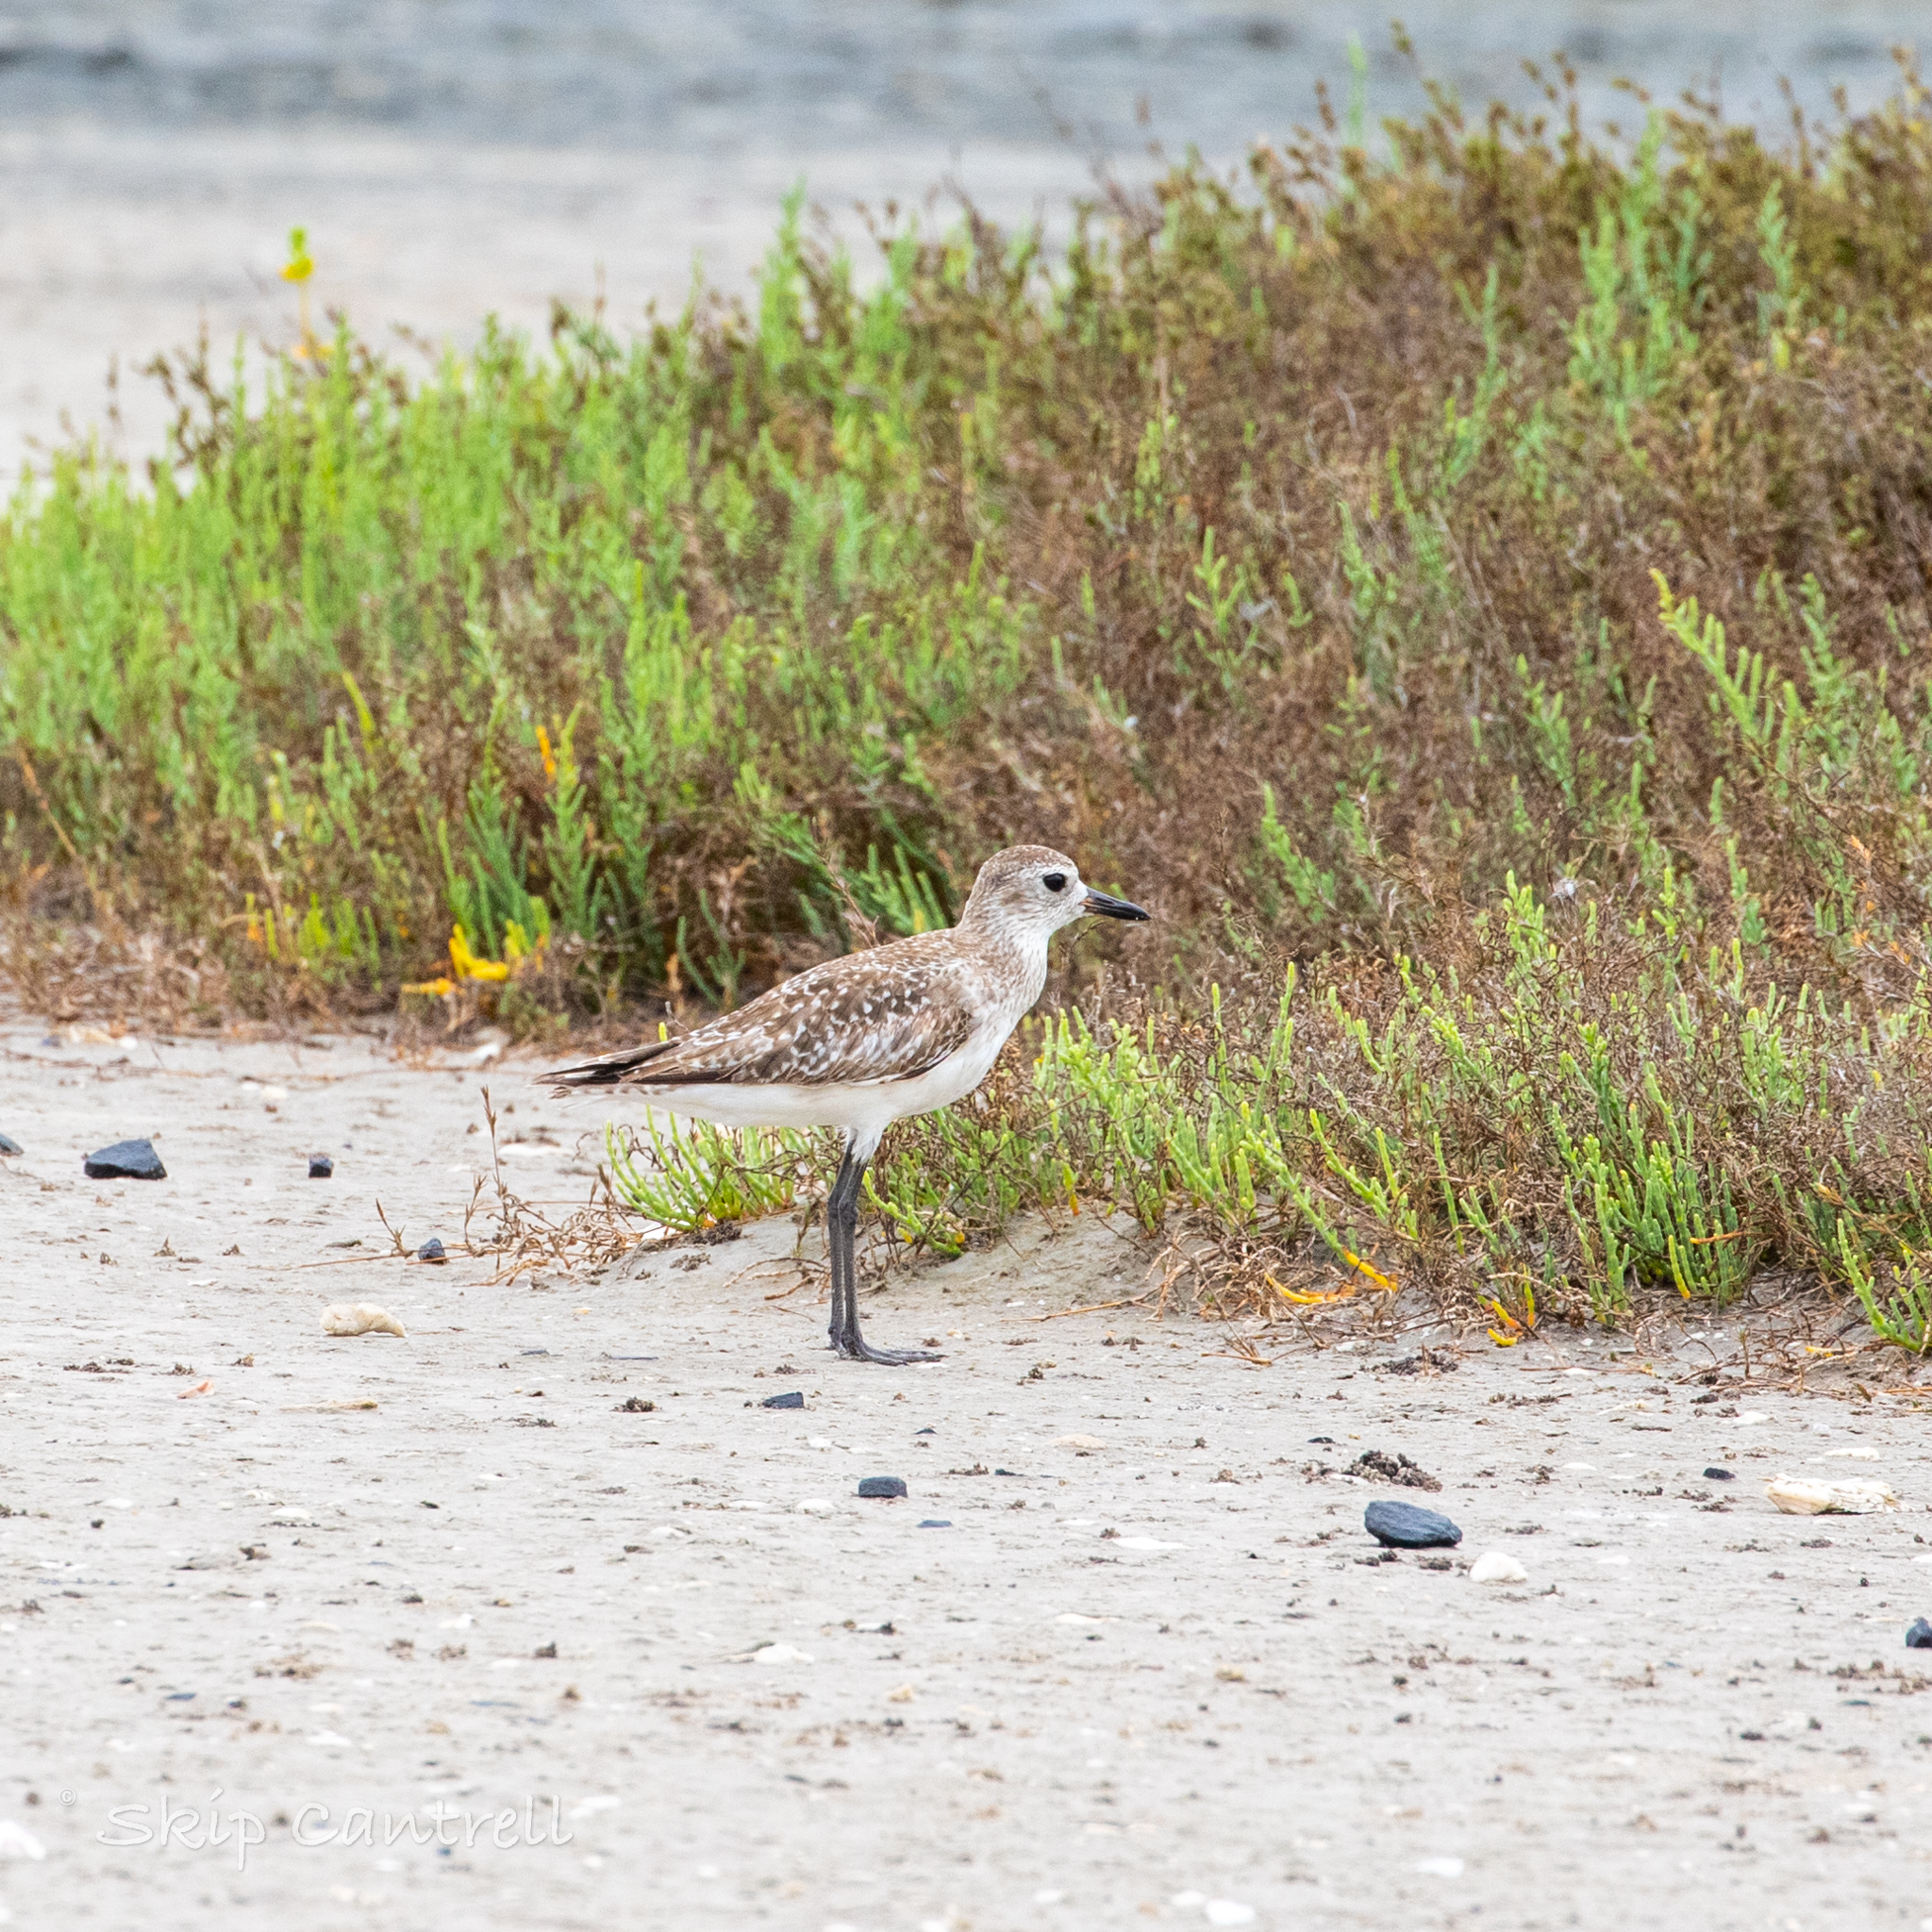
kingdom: Animalia
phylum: Chordata
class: Aves
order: Charadriiformes
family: Charadriidae
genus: Pluvialis
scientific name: Pluvialis squatarola
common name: Grey plover
